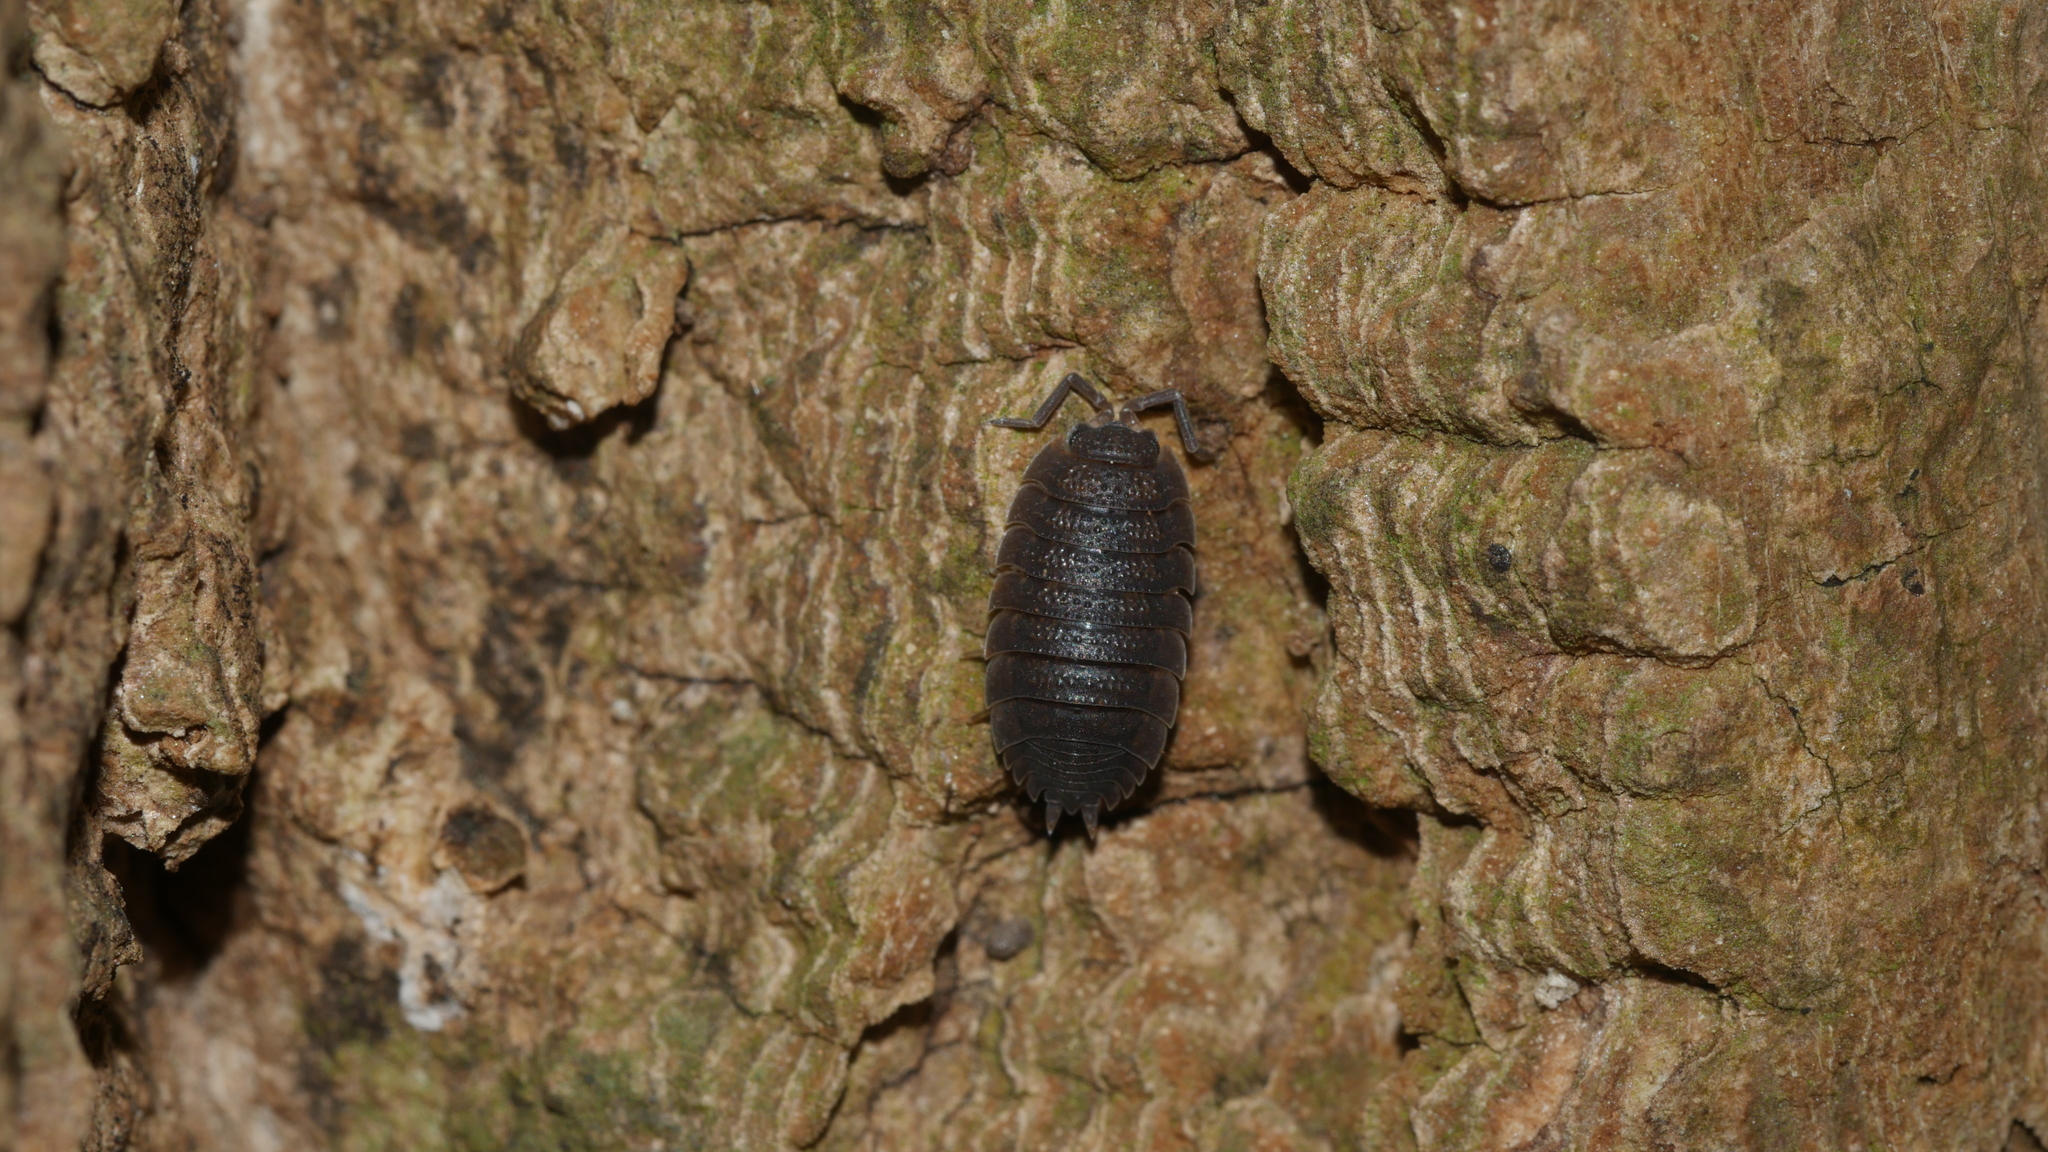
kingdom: Animalia
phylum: Arthropoda
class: Malacostraca
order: Isopoda
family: Porcellionidae
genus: Porcellio
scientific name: Porcellio scaber
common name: Common rough woodlouse
